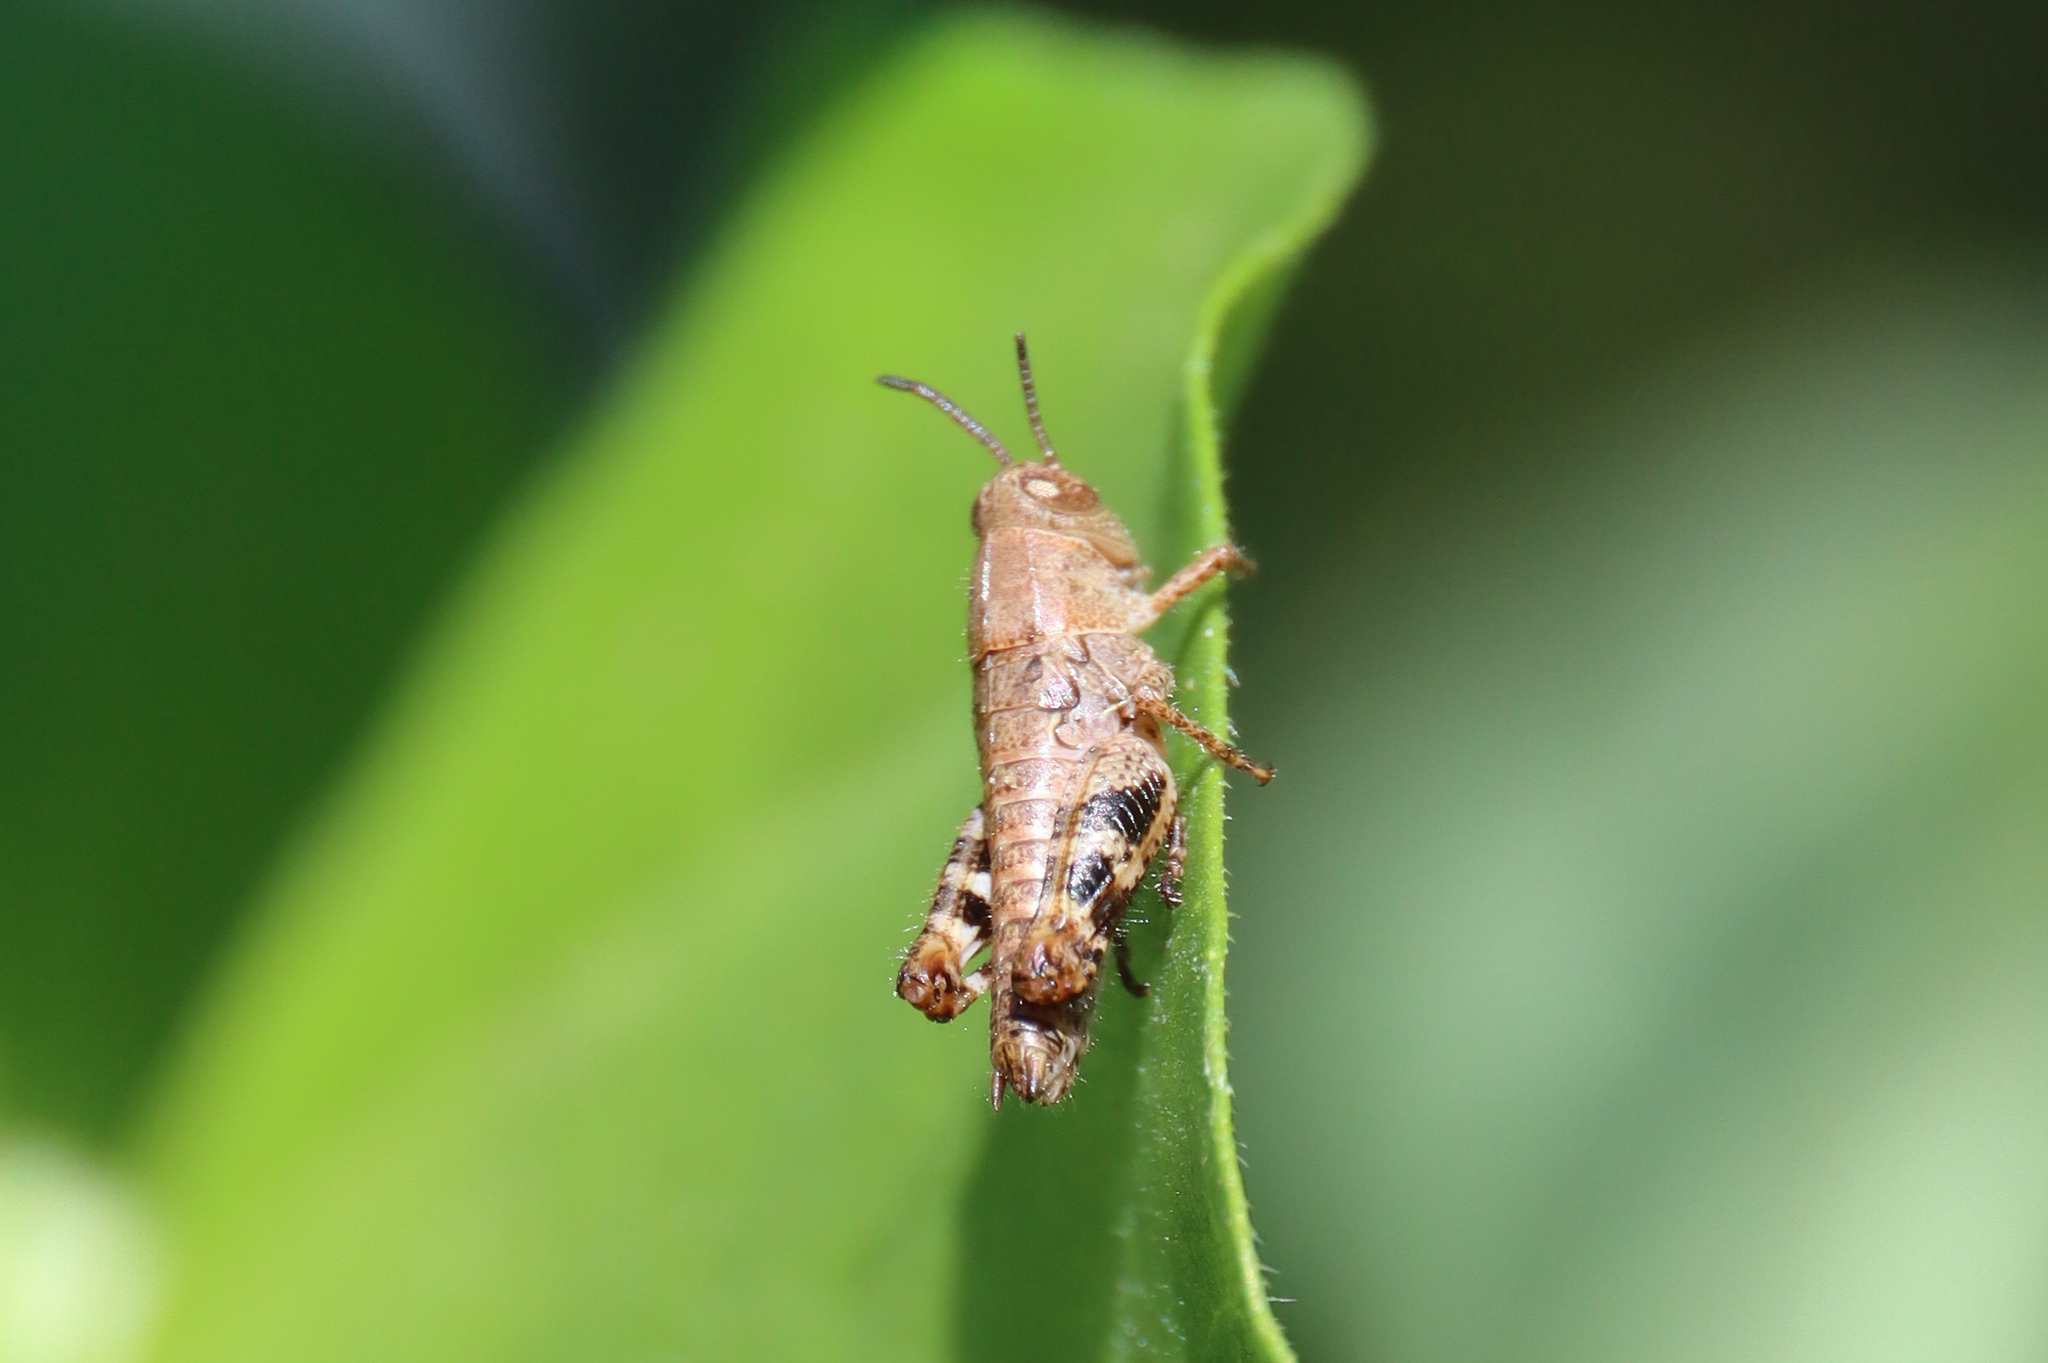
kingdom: Animalia
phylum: Arthropoda
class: Insecta
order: Orthoptera
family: Acrididae
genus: Calliptamus
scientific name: Calliptamus italicus
